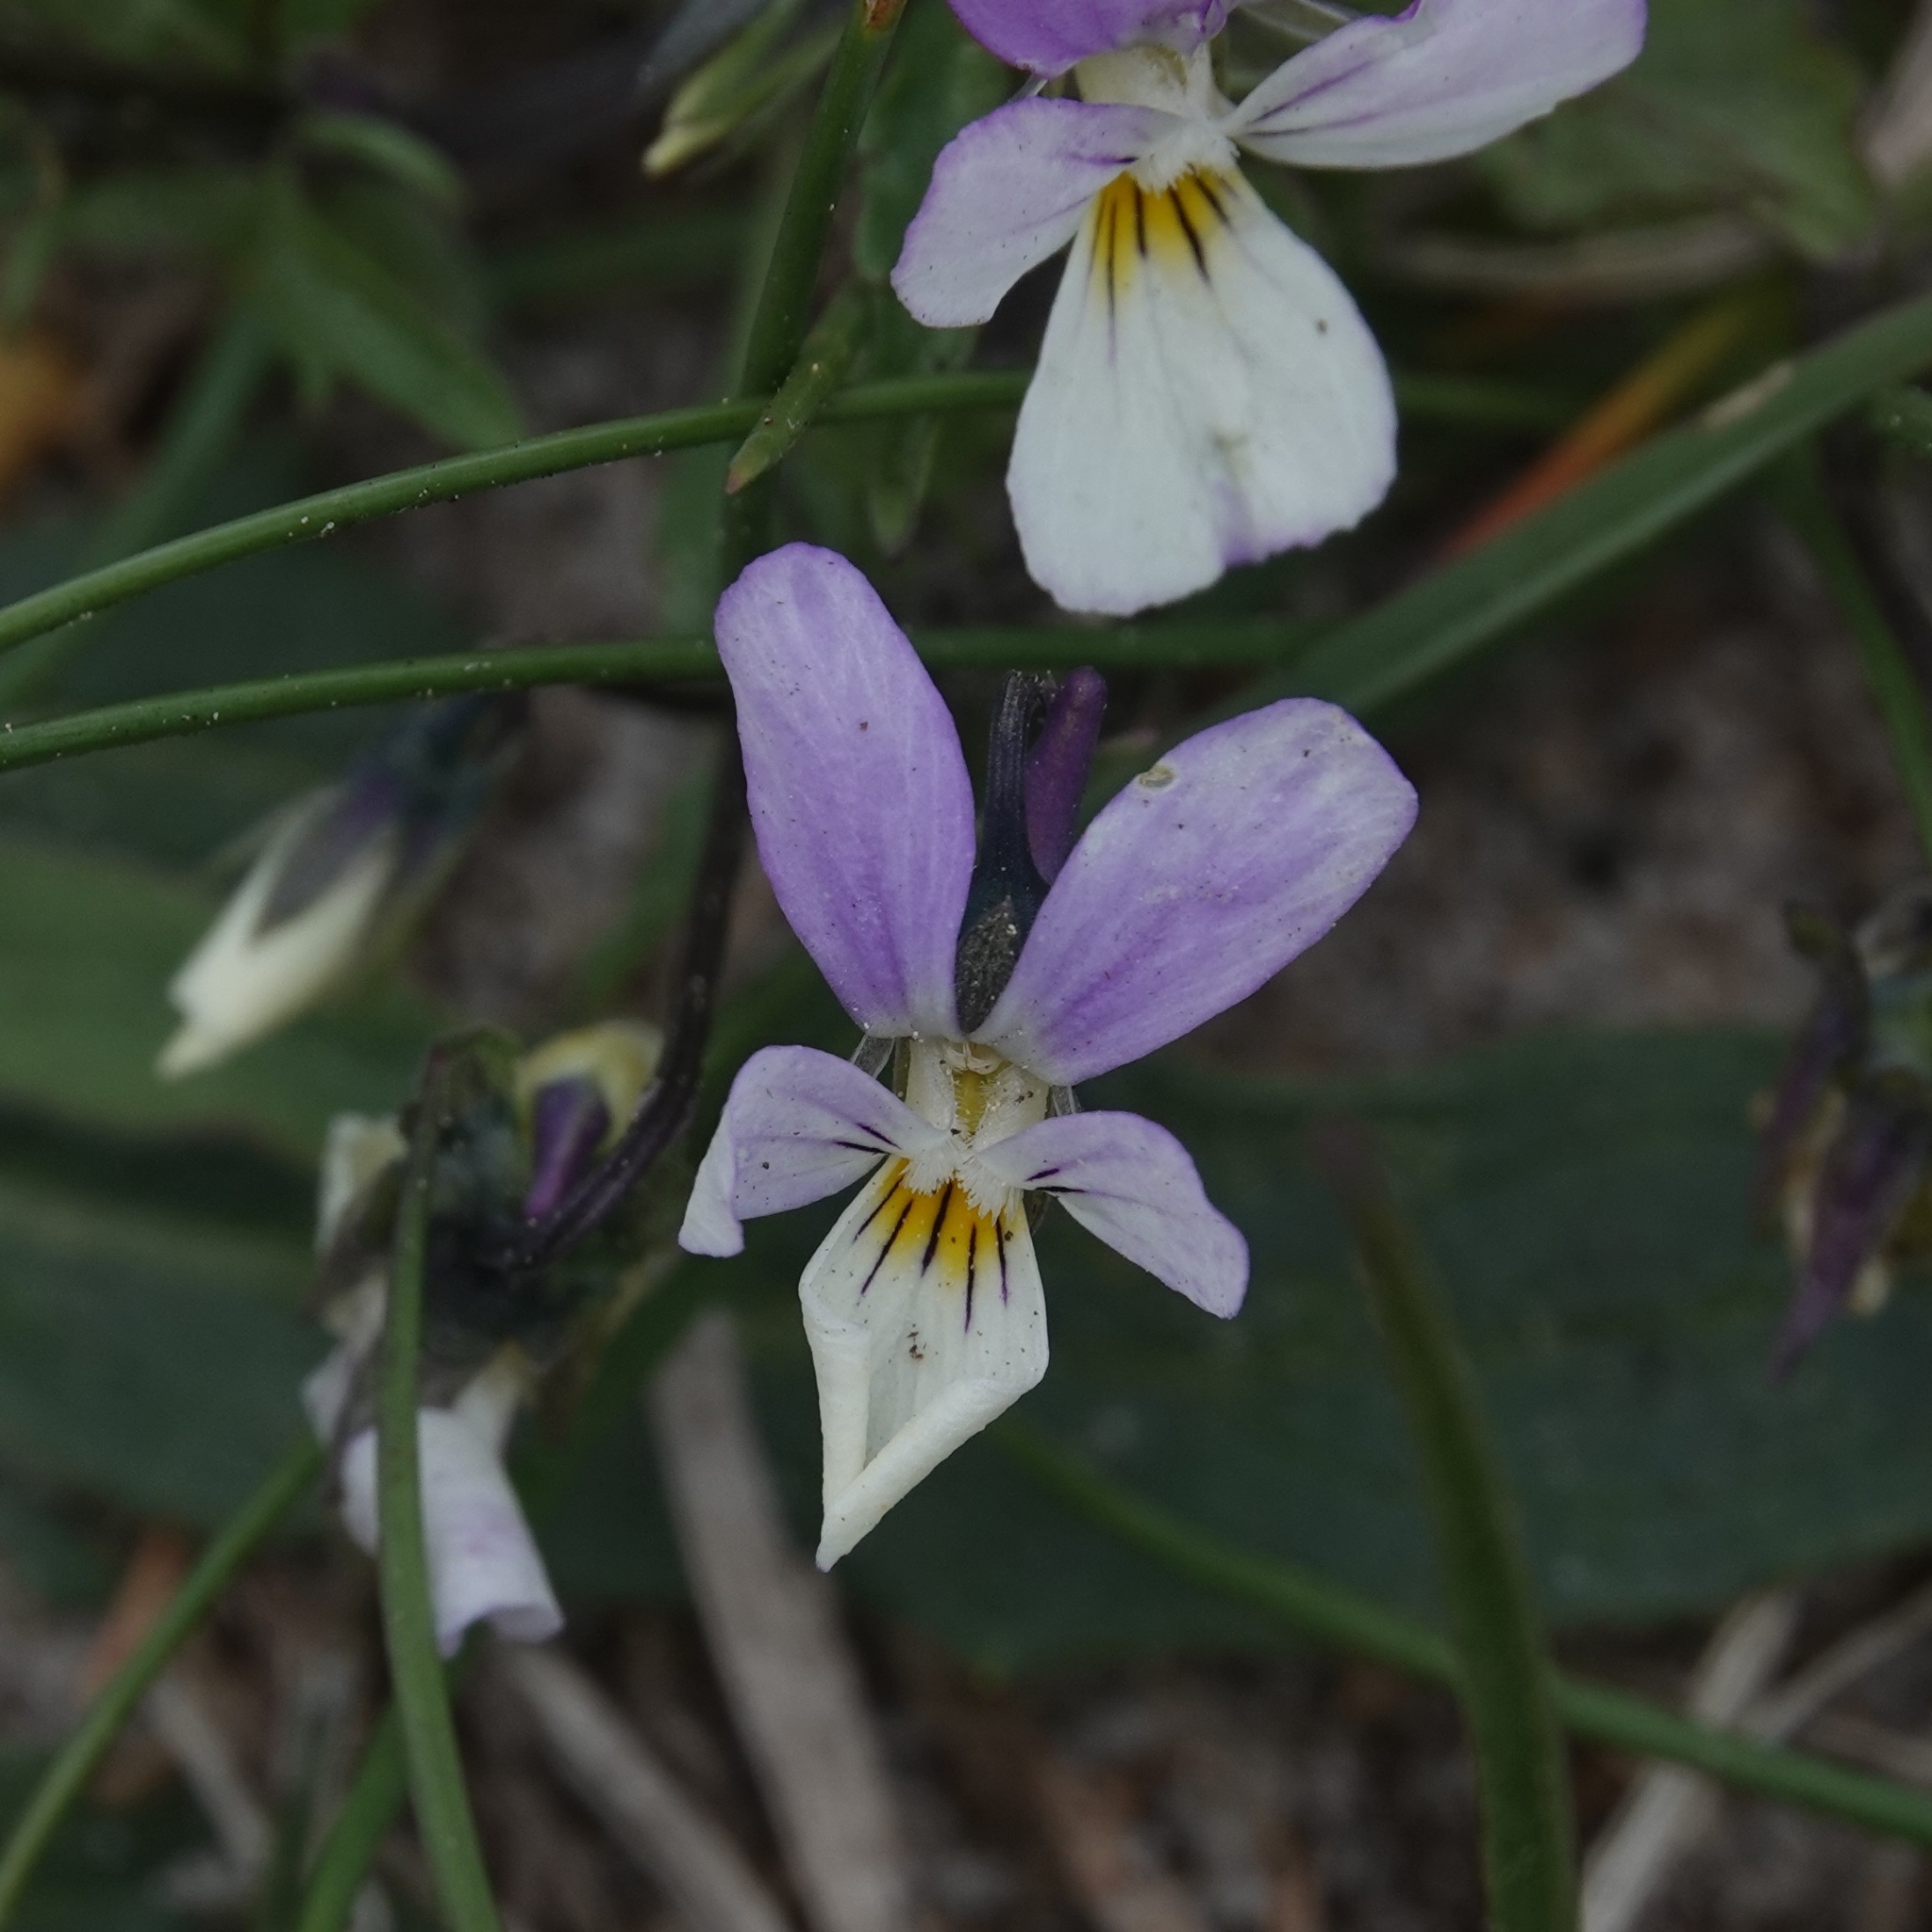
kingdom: Plantae
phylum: Tracheophyta
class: Magnoliopsida
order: Malpighiales
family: Violaceae
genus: Viola
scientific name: Viola tricolor
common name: Pansy
